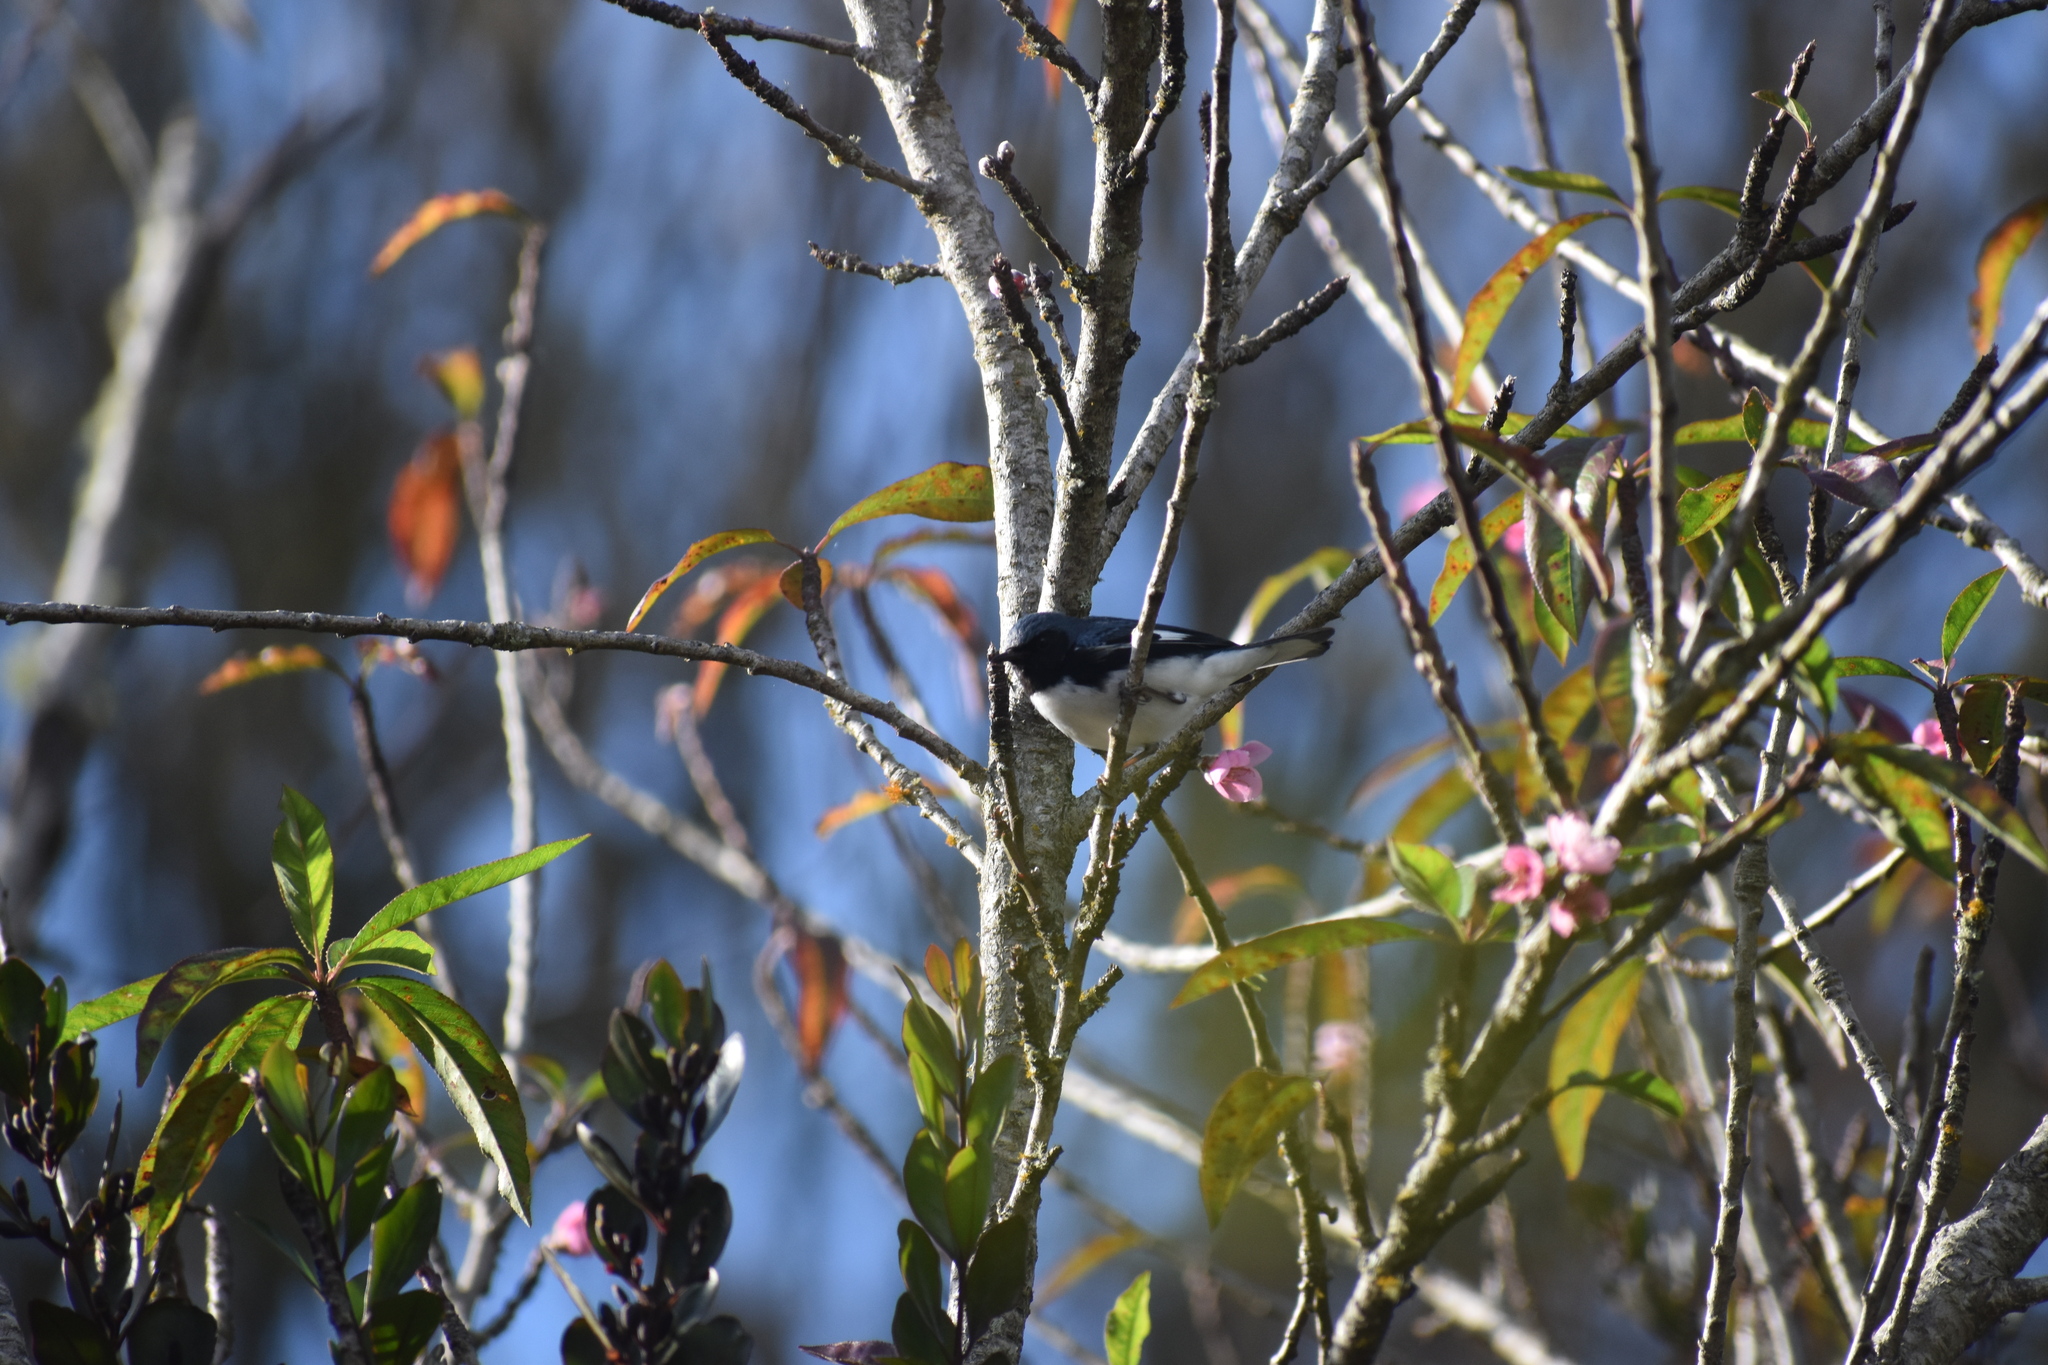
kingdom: Animalia
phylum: Chordata
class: Aves
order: Passeriformes
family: Parulidae
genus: Setophaga
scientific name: Setophaga caerulescens
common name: Black-throated blue warbler
